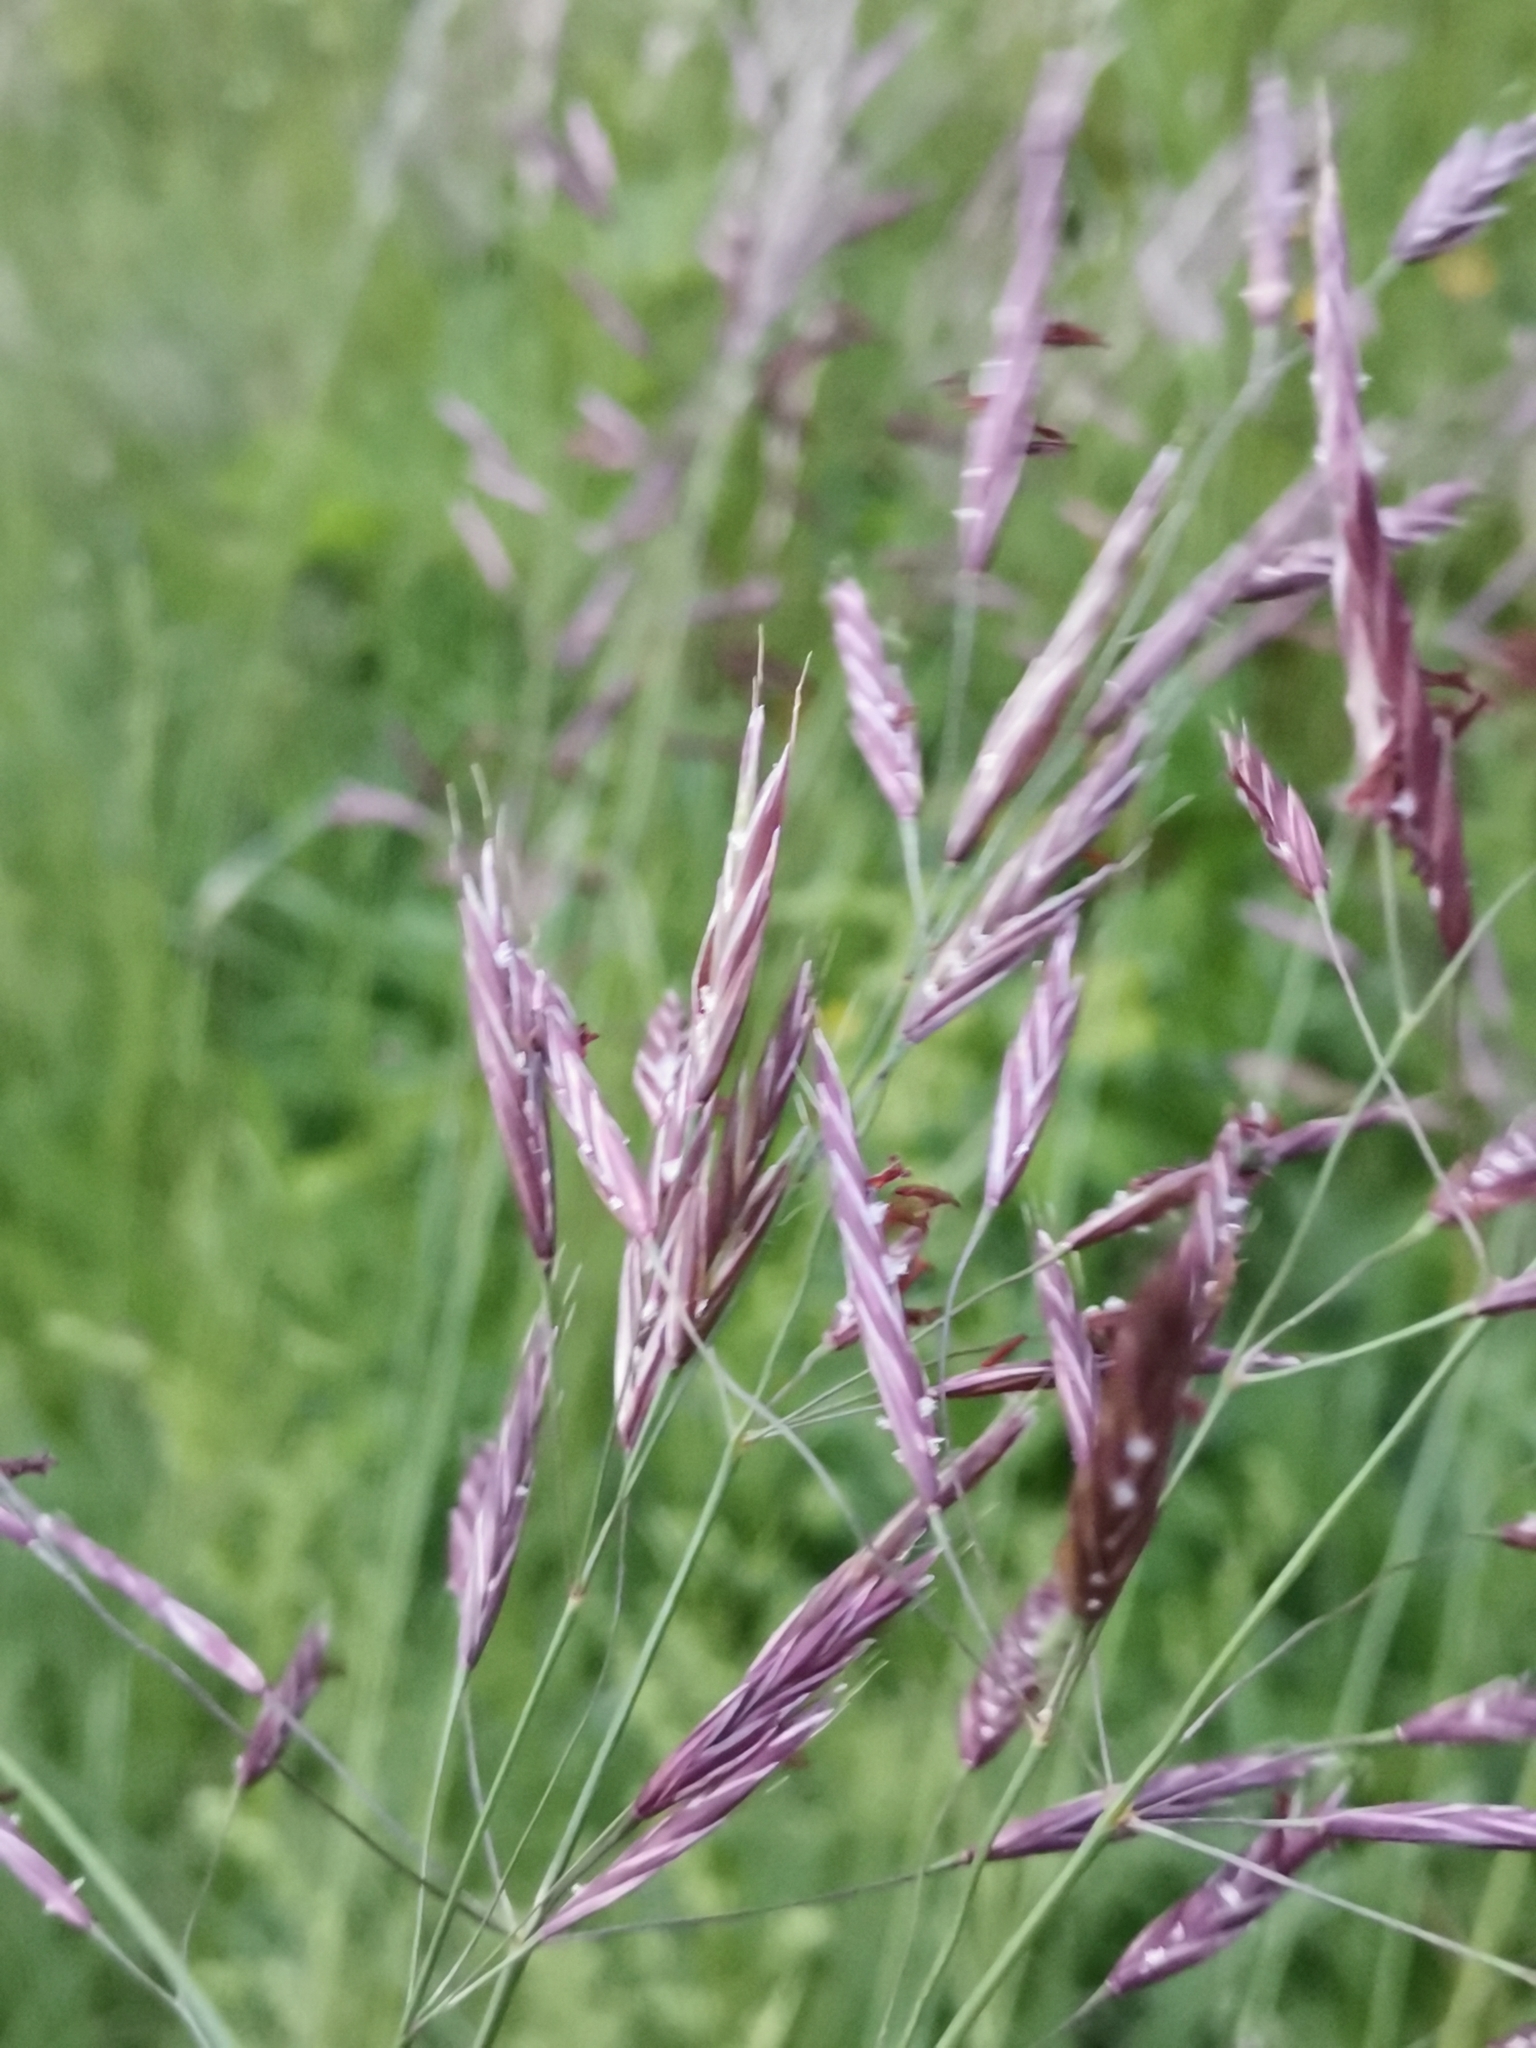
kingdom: Plantae
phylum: Tracheophyta
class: Liliopsida
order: Poales
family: Poaceae
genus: Bromus
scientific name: Bromus erectus
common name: Erect brome
